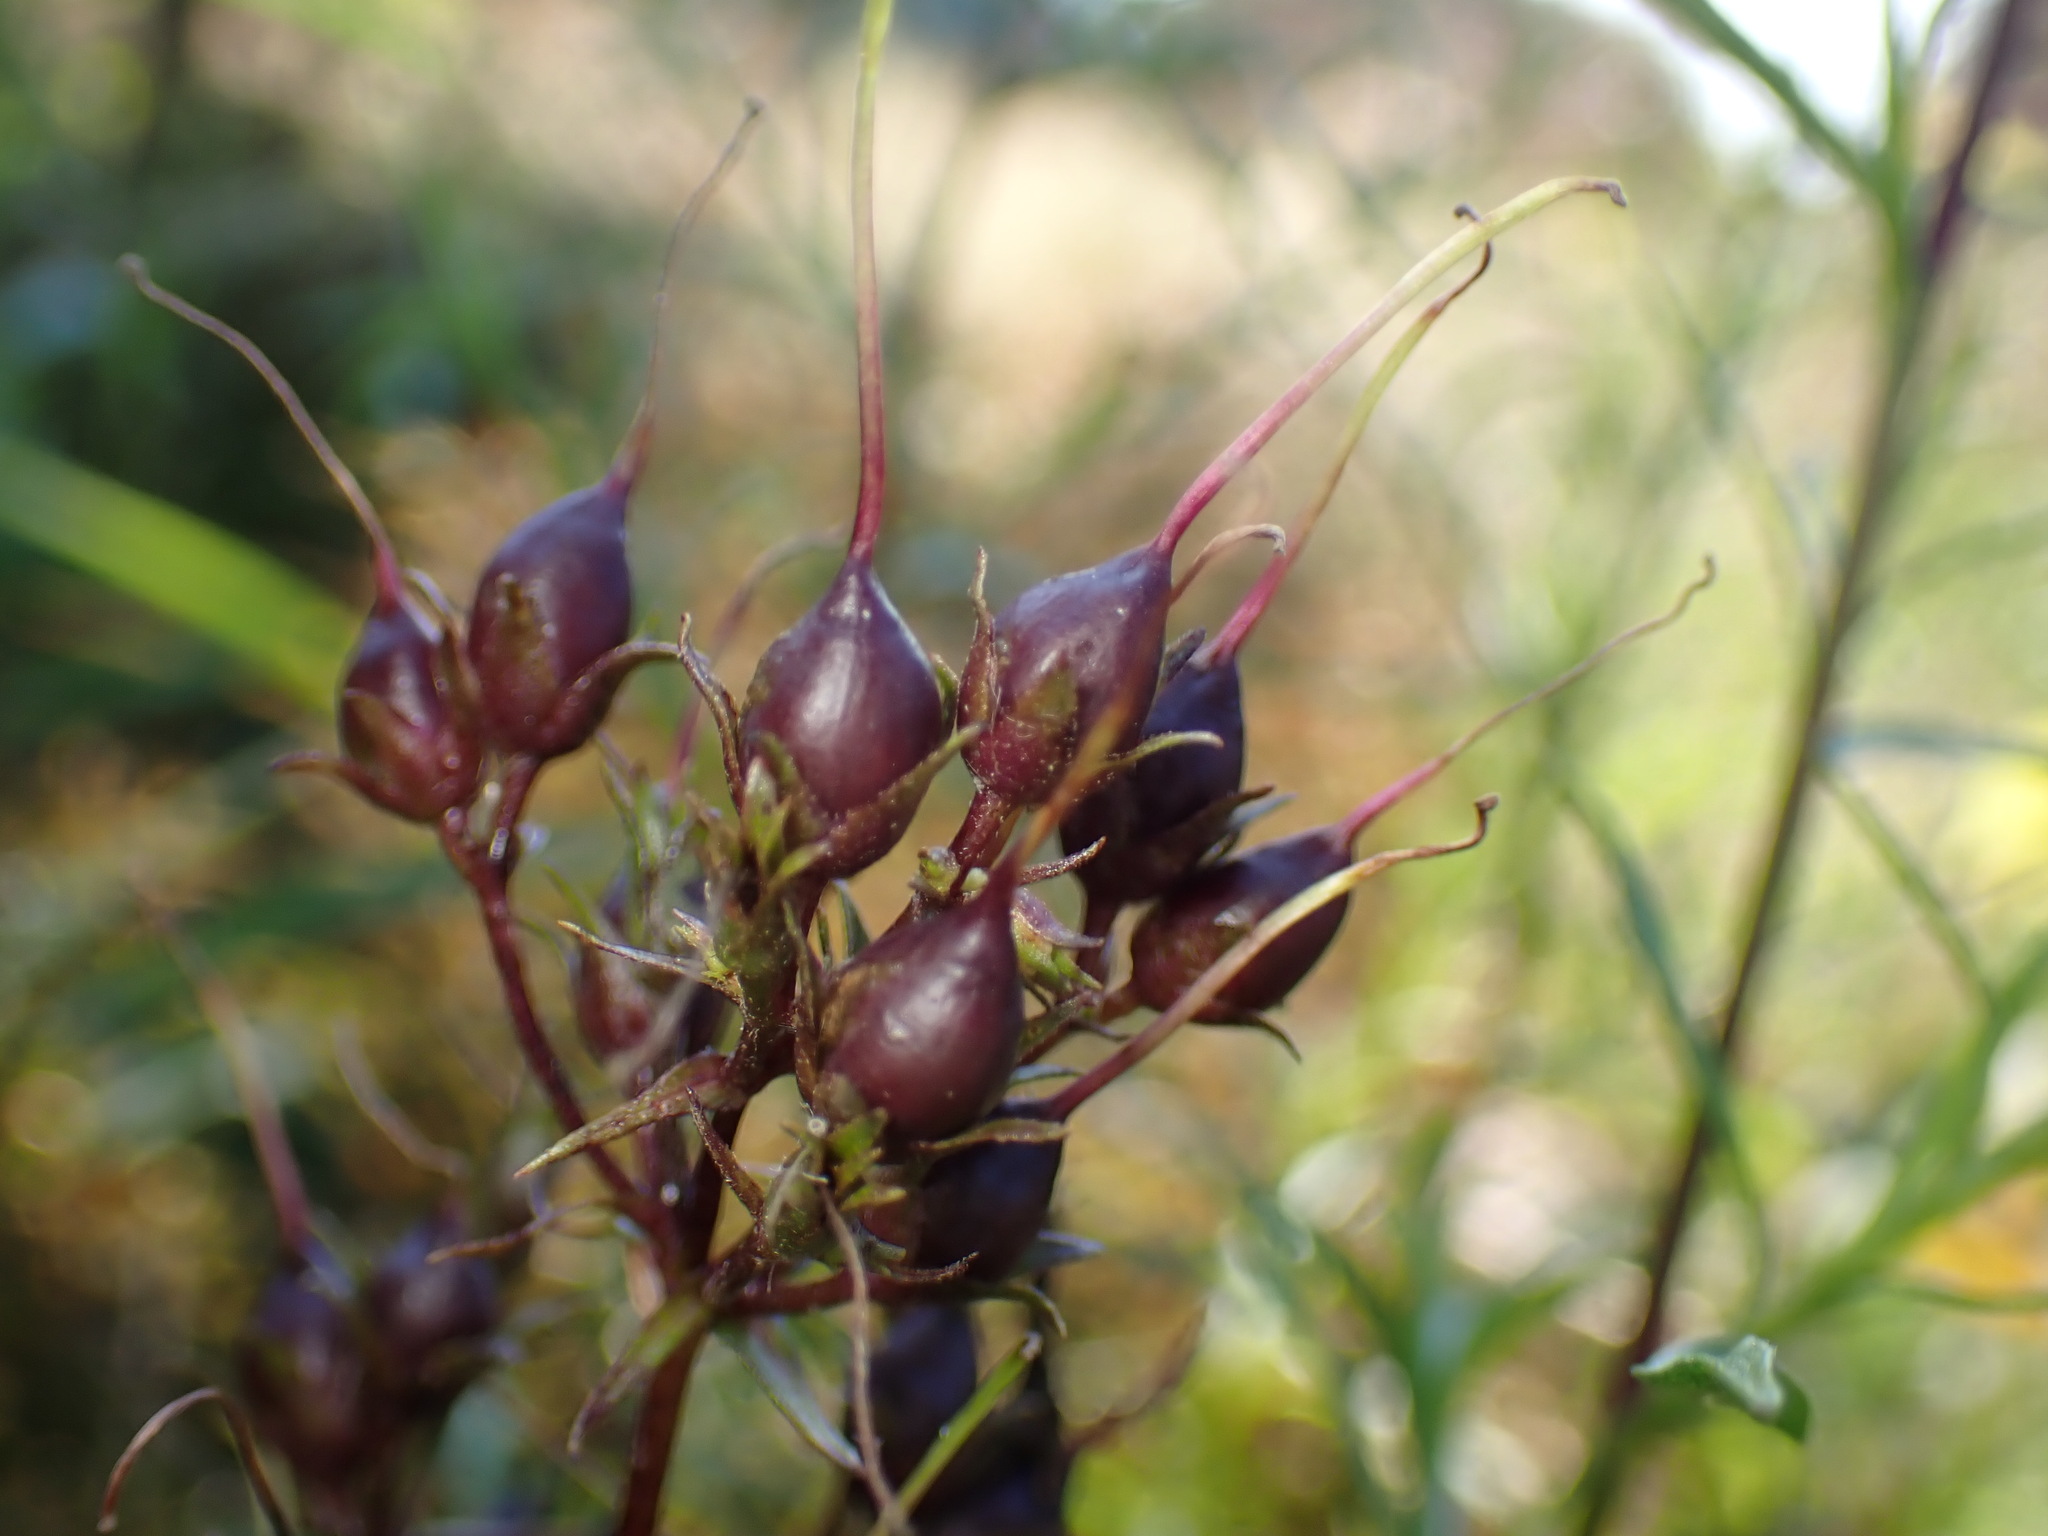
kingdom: Animalia
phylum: Arthropoda
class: Insecta
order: Diptera
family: Agromyzidae
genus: Phytomyza
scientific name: Phytomyza penstemonis
